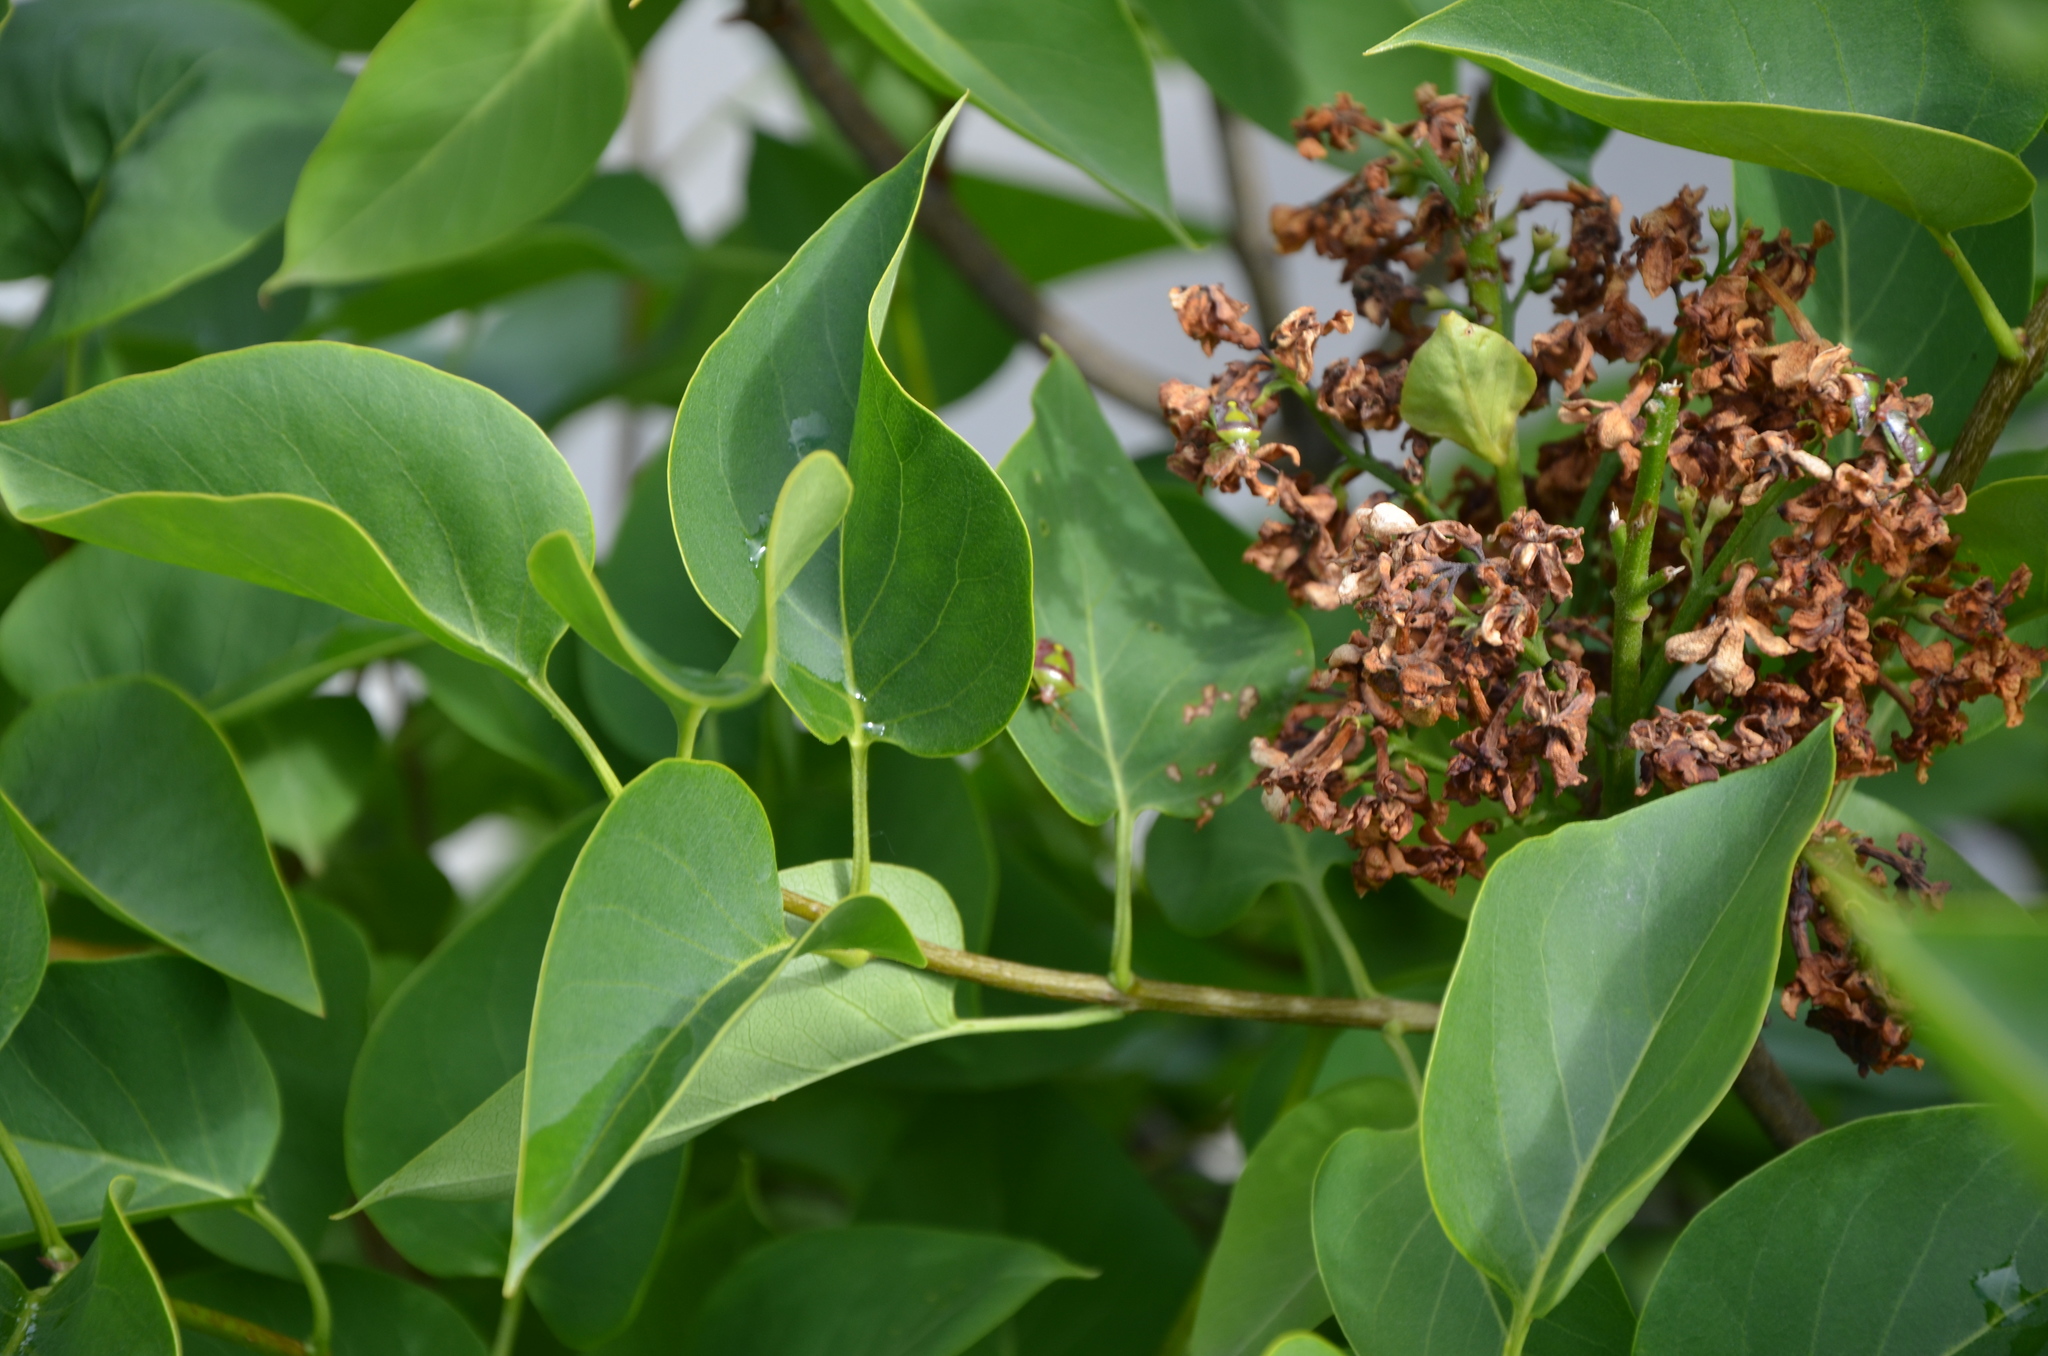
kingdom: Animalia
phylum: Arthropoda
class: Insecta
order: Hemiptera
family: Pentatomidae
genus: Banasa
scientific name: Banasa dimidiata
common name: Green burgundy stink bug
